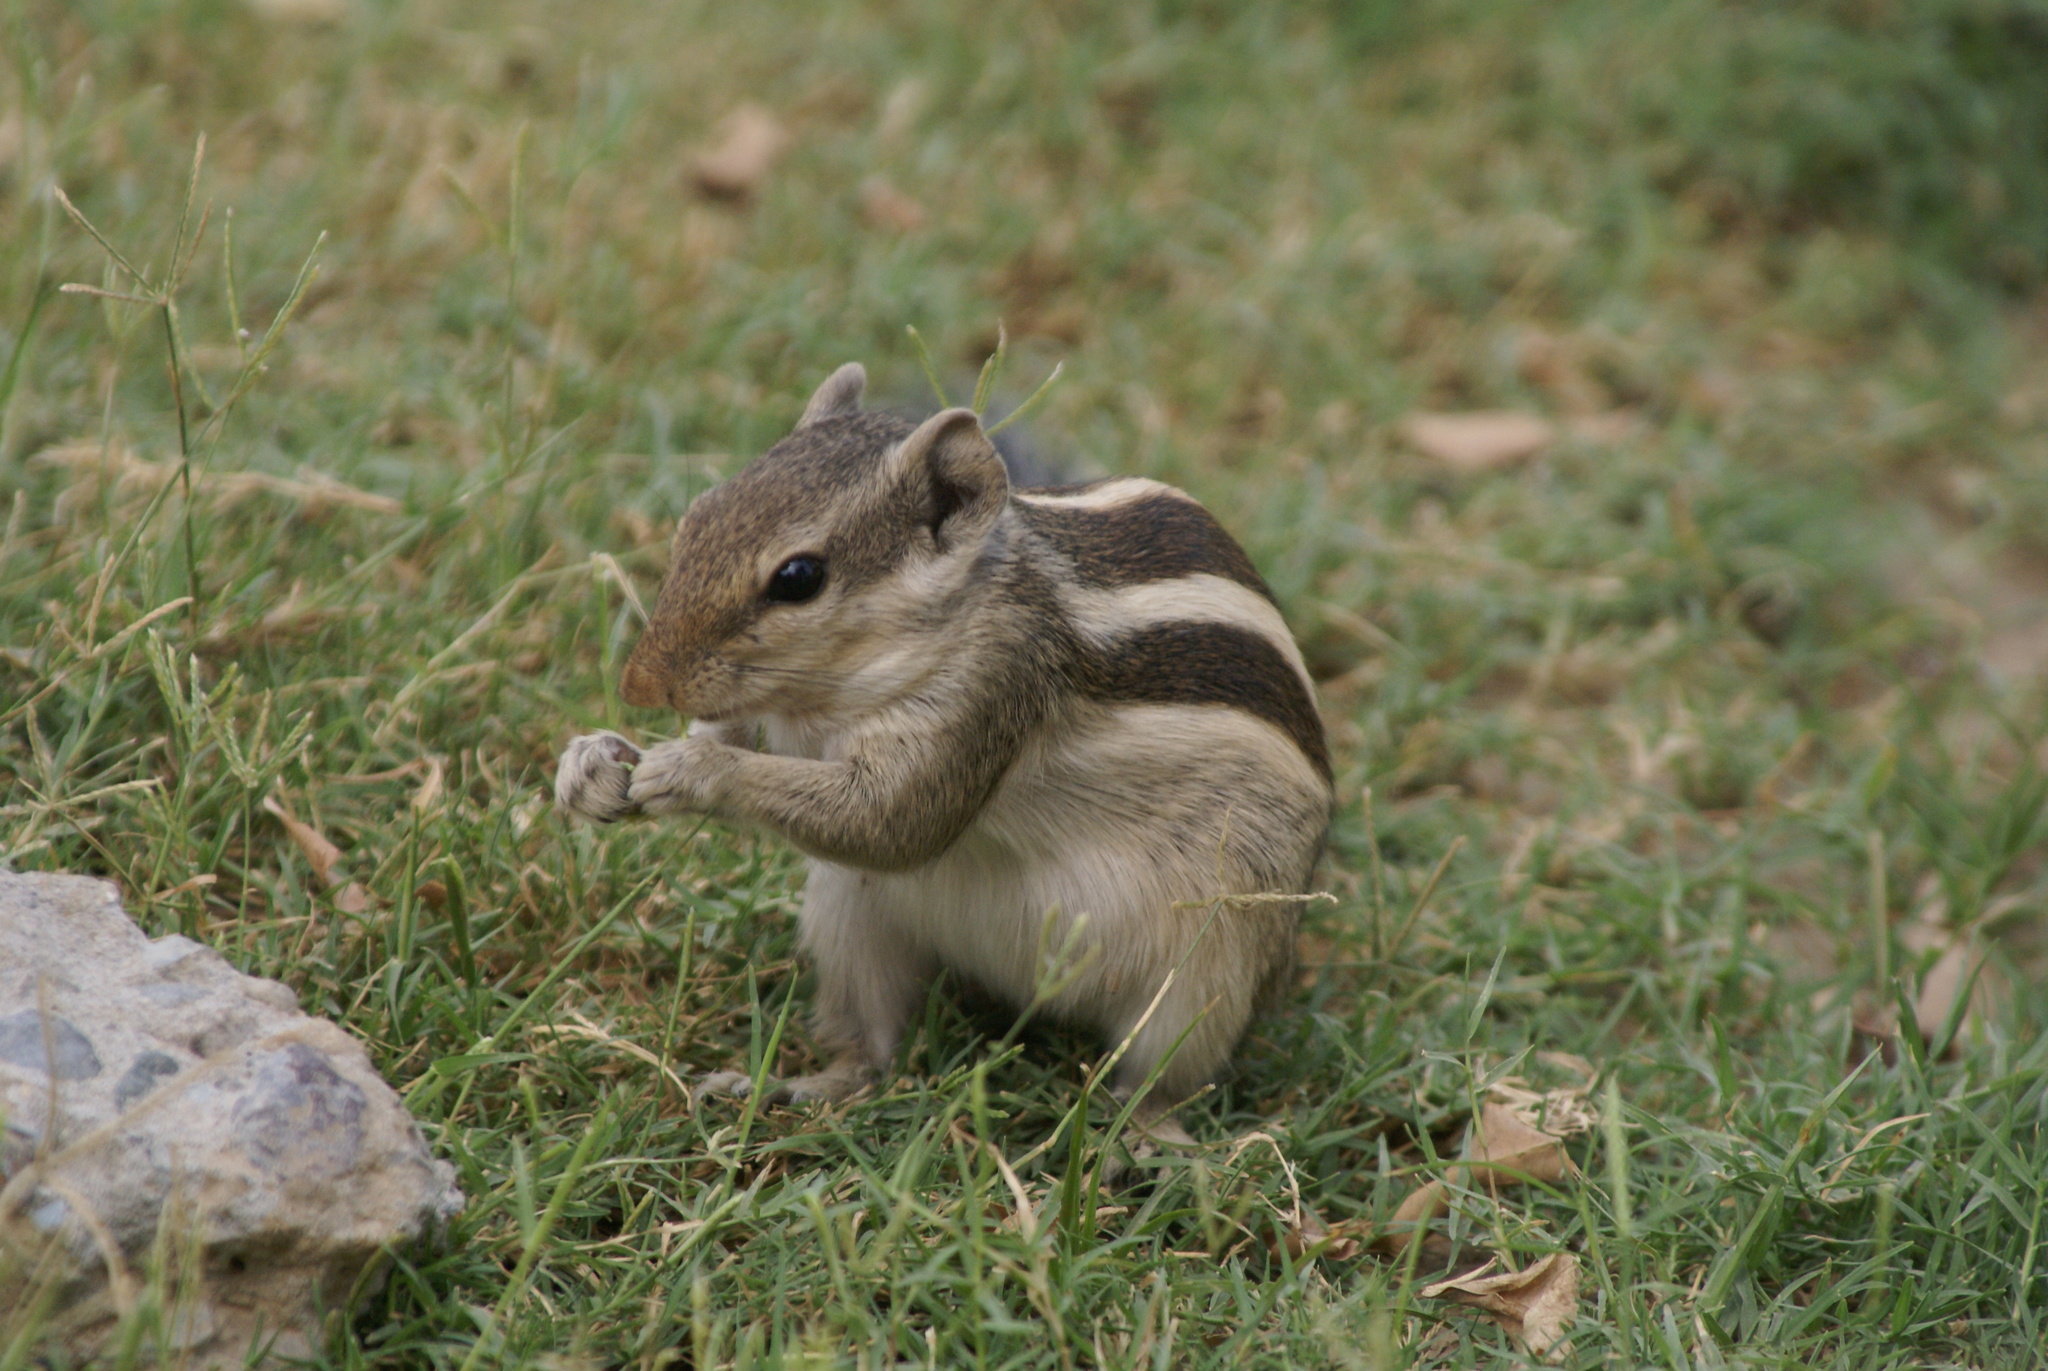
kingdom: Animalia
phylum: Chordata
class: Mammalia
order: Rodentia
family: Sciuridae
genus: Funambulus
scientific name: Funambulus pennantii
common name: Northern palm squirrel
